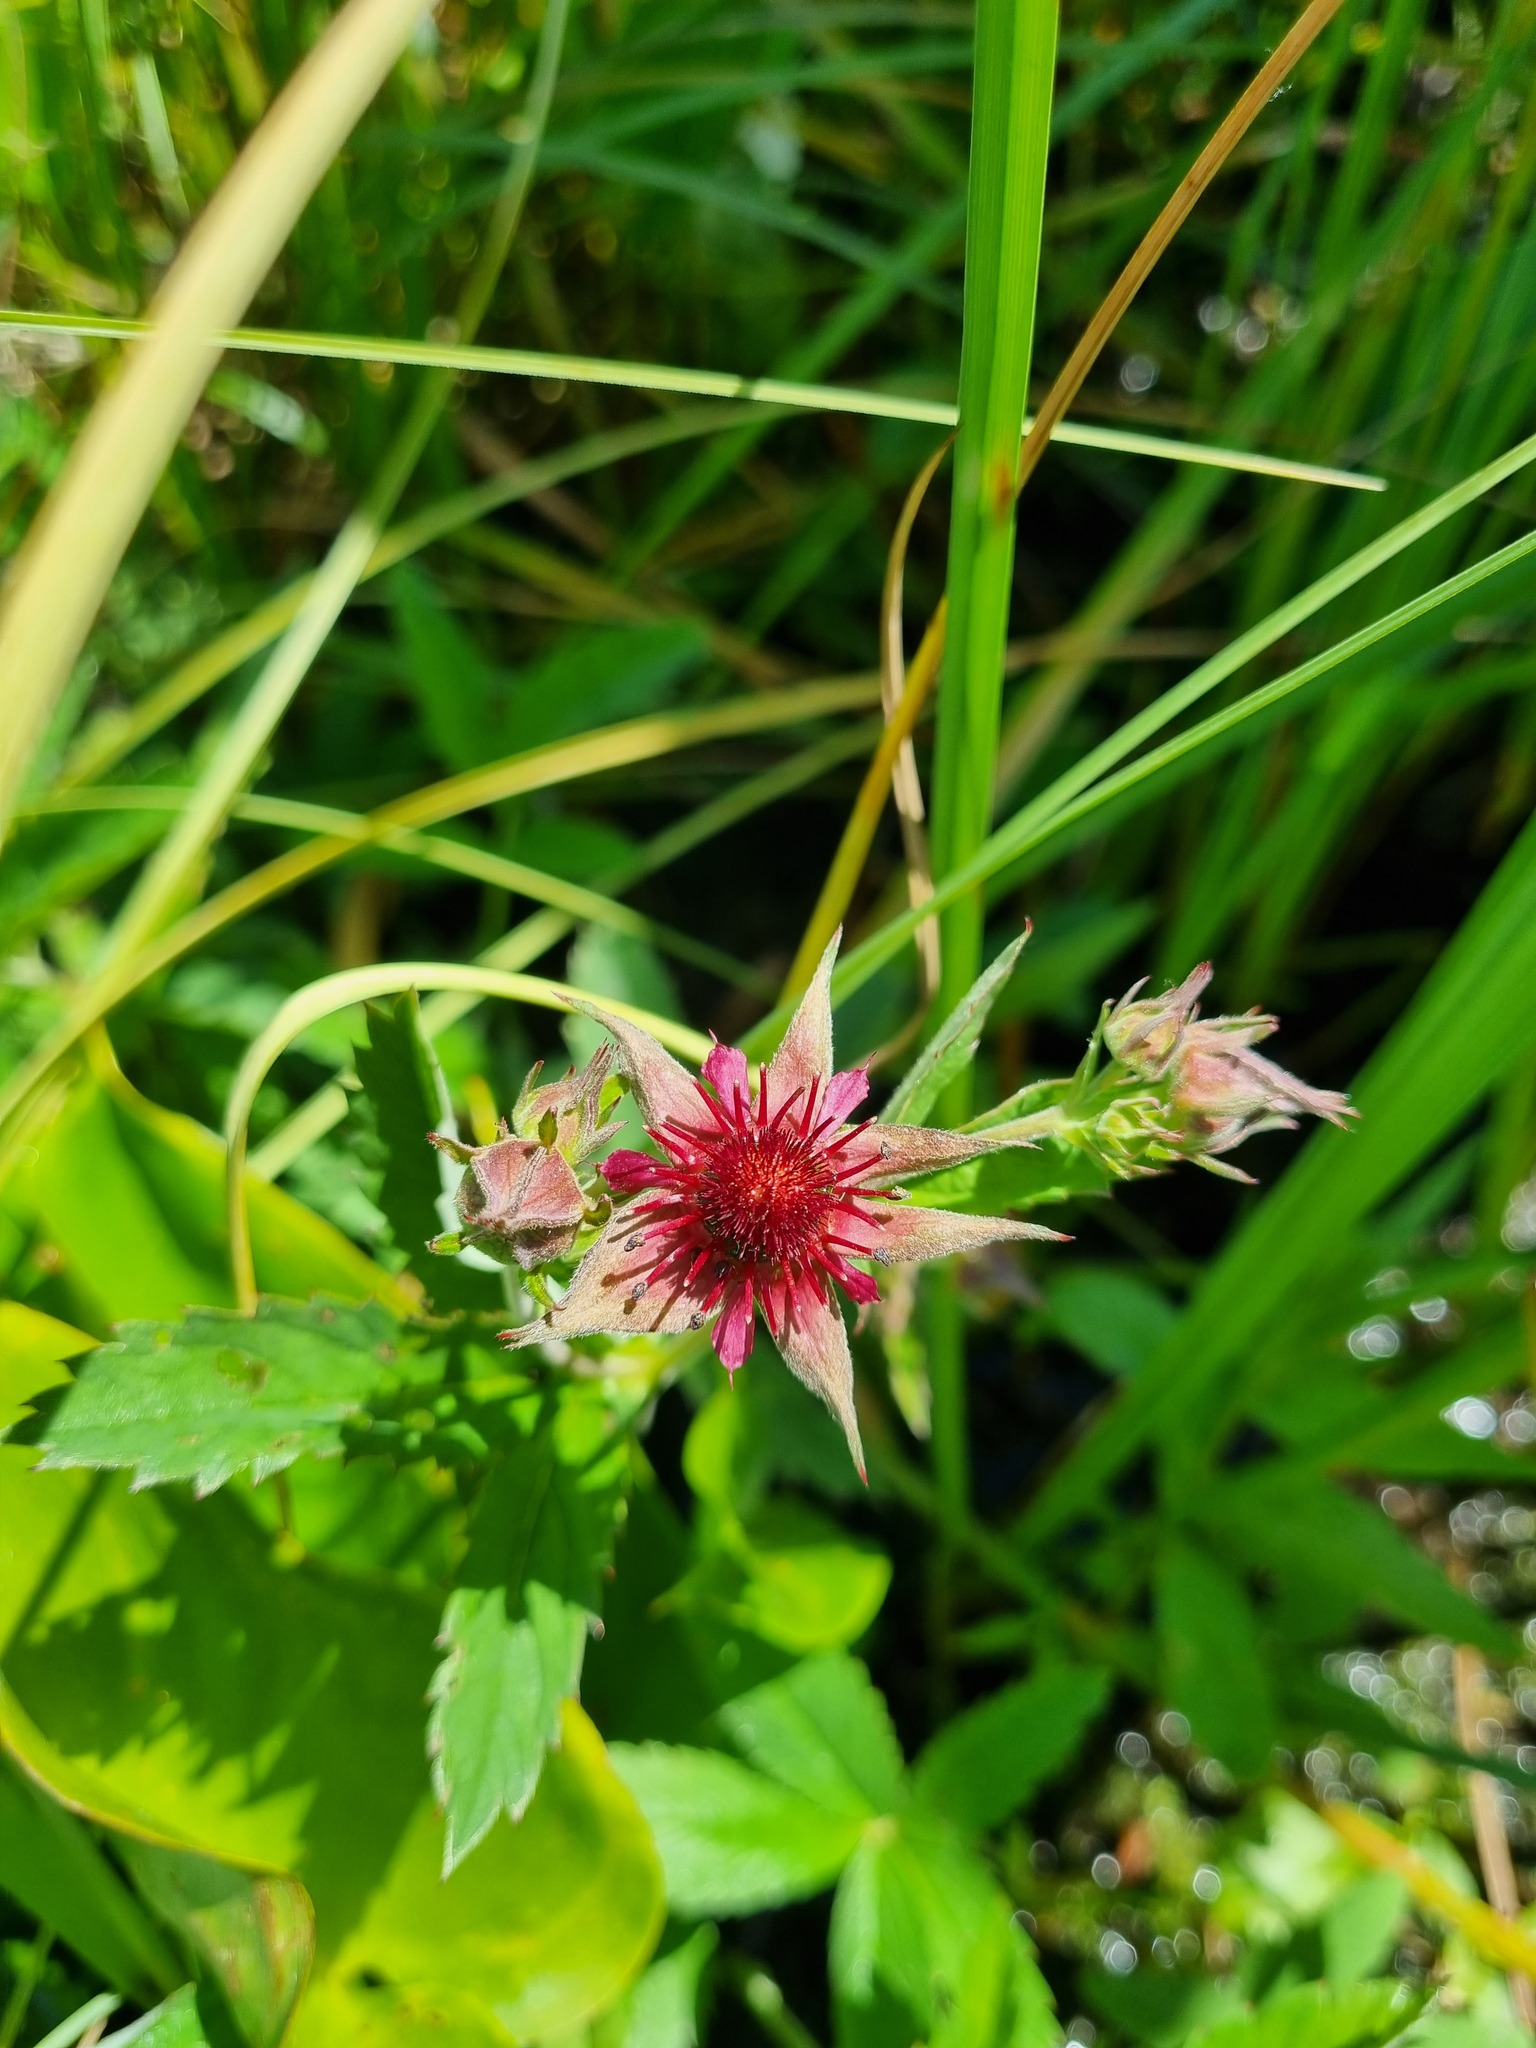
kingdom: Plantae
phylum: Tracheophyta
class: Magnoliopsida
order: Rosales
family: Rosaceae
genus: Comarum
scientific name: Comarum palustre
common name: Marsh cinquefoil
